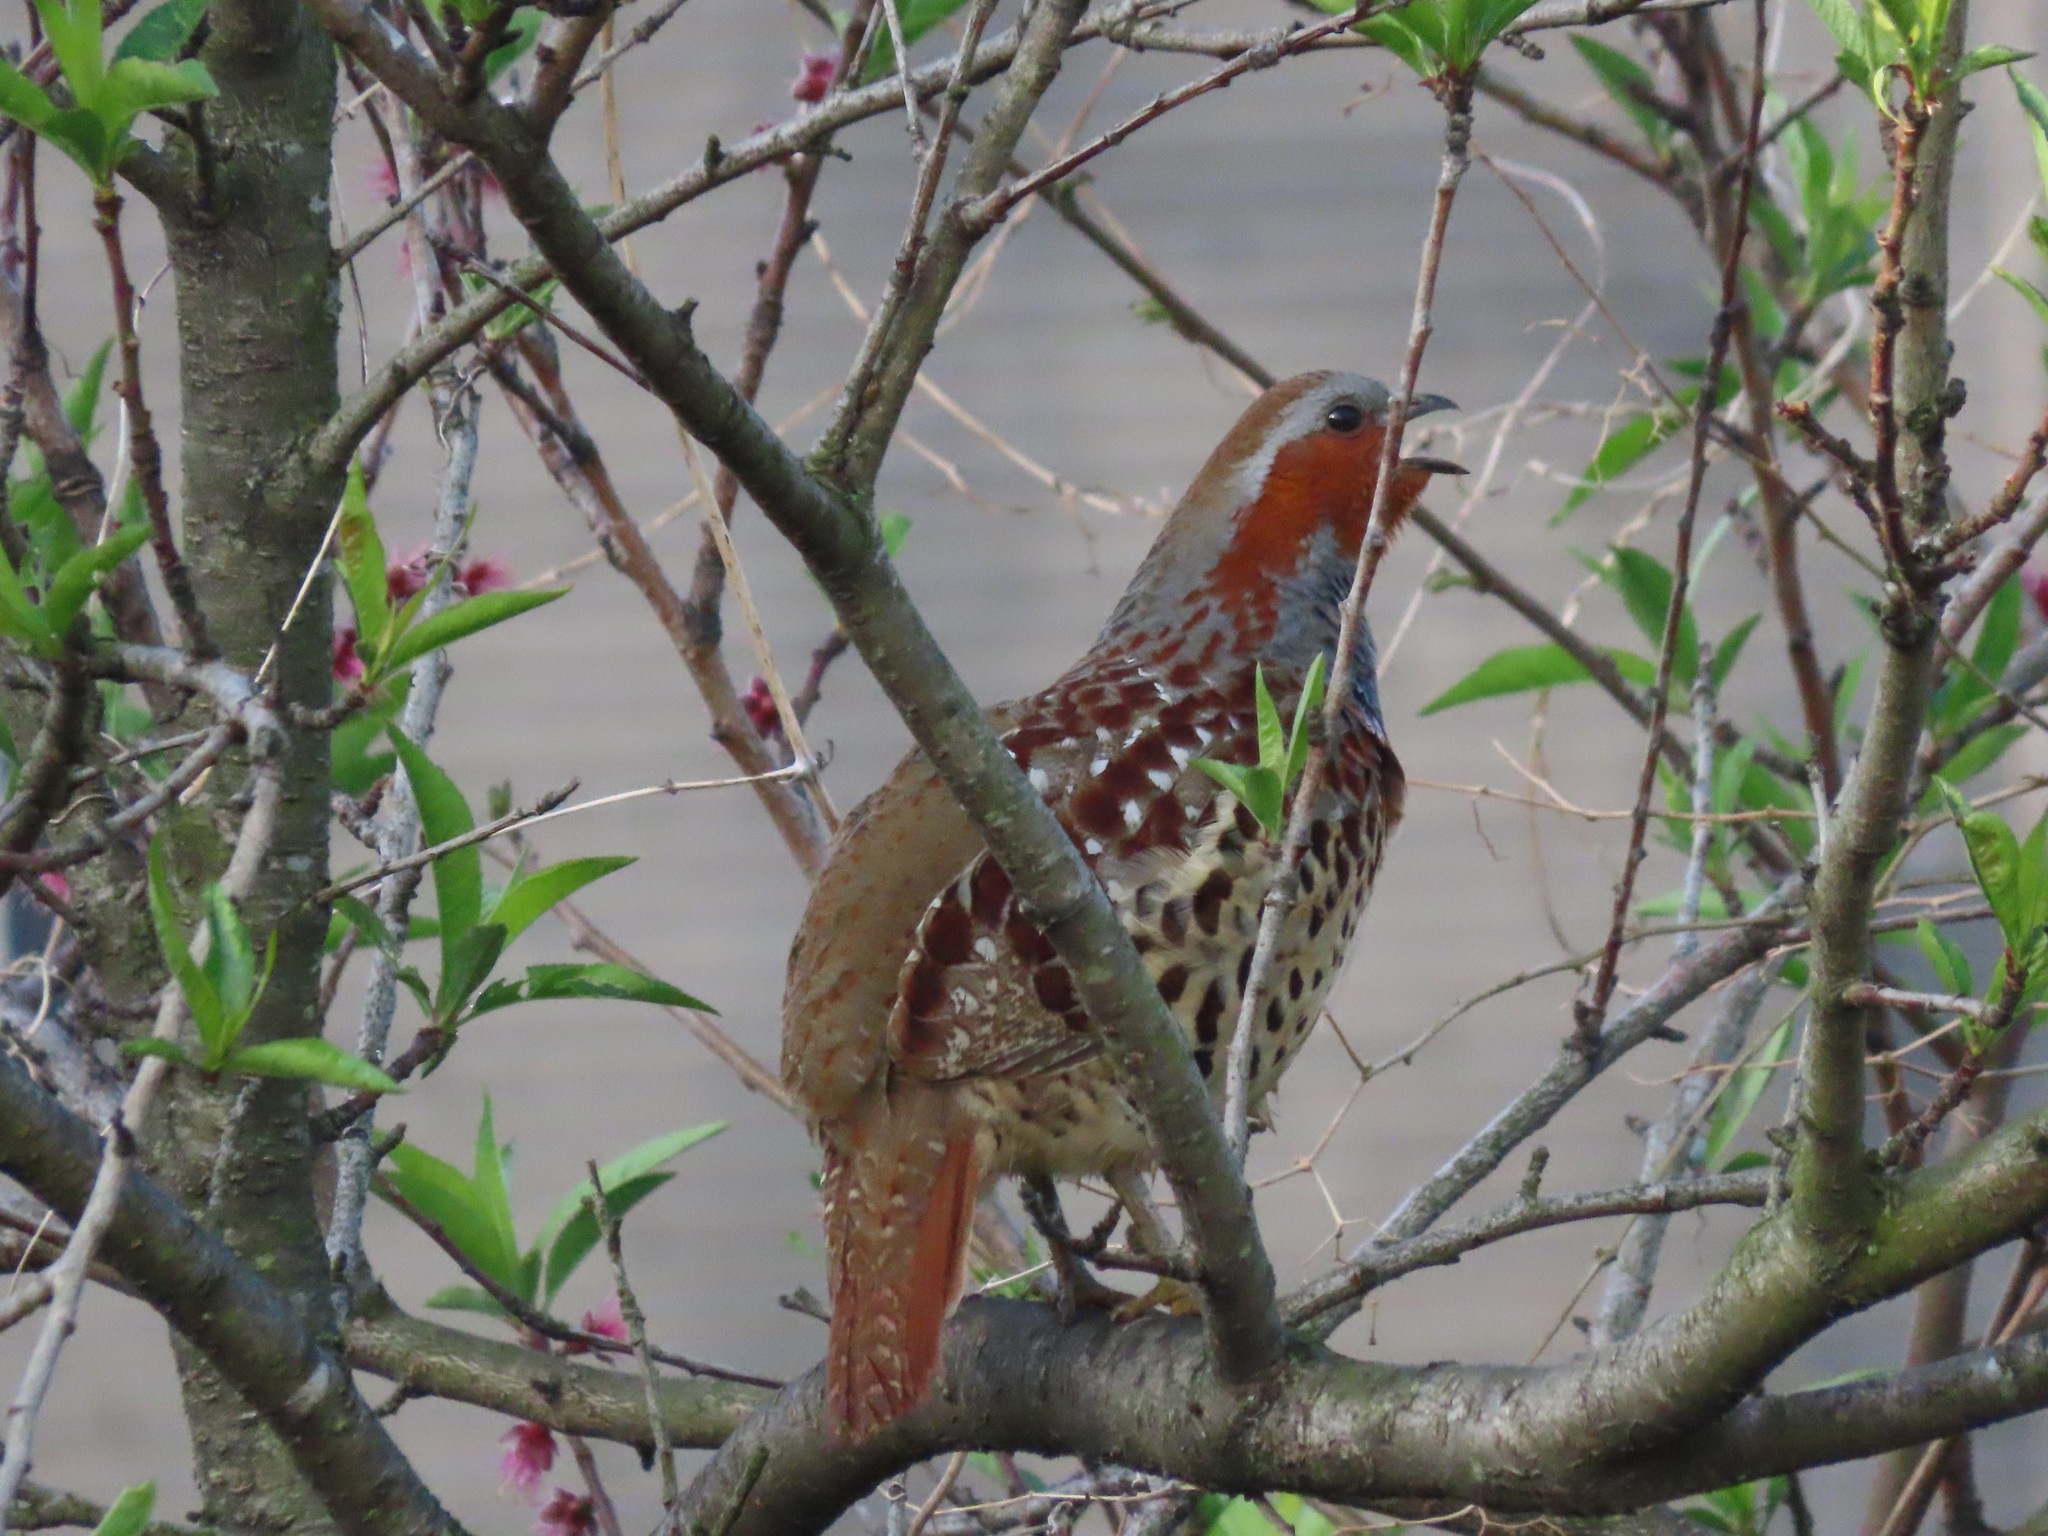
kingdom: Animalia
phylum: Chordata
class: Aves
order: Galliformes
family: Phasianidae
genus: Bambusicola
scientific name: Bambusicola thoracicus
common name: Chinese bamboo partridge
